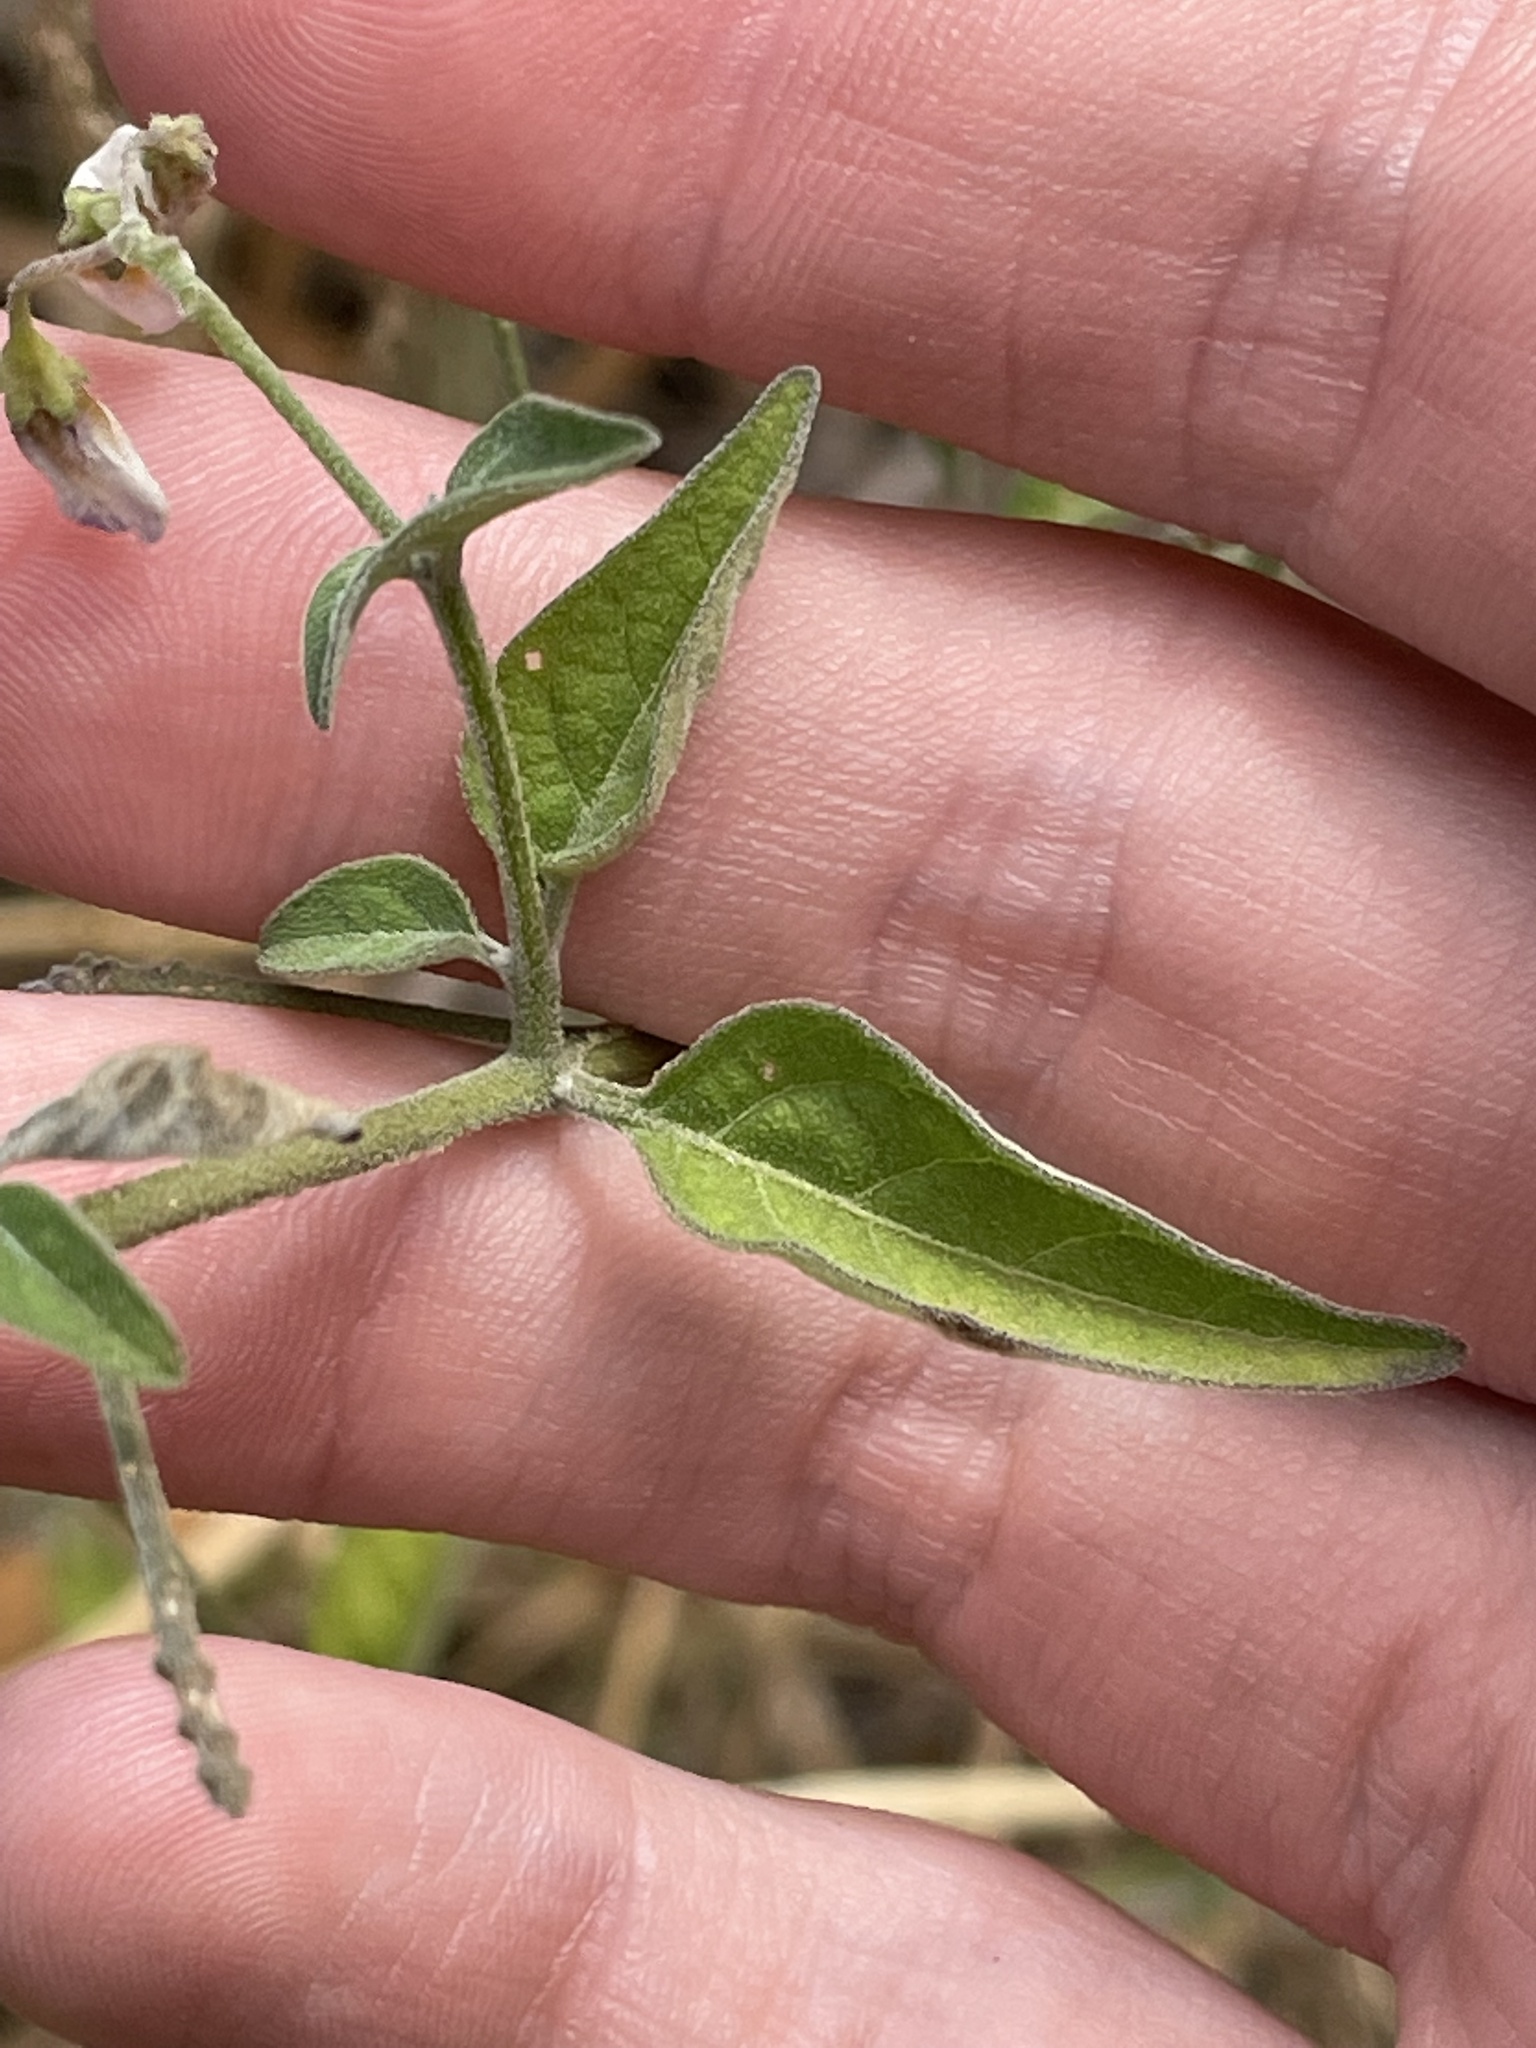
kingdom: Plantae
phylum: Tracheophyta
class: Magnoliopsida
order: Solanales
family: Solanaceae
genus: Solanum
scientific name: Solanum douglasii
